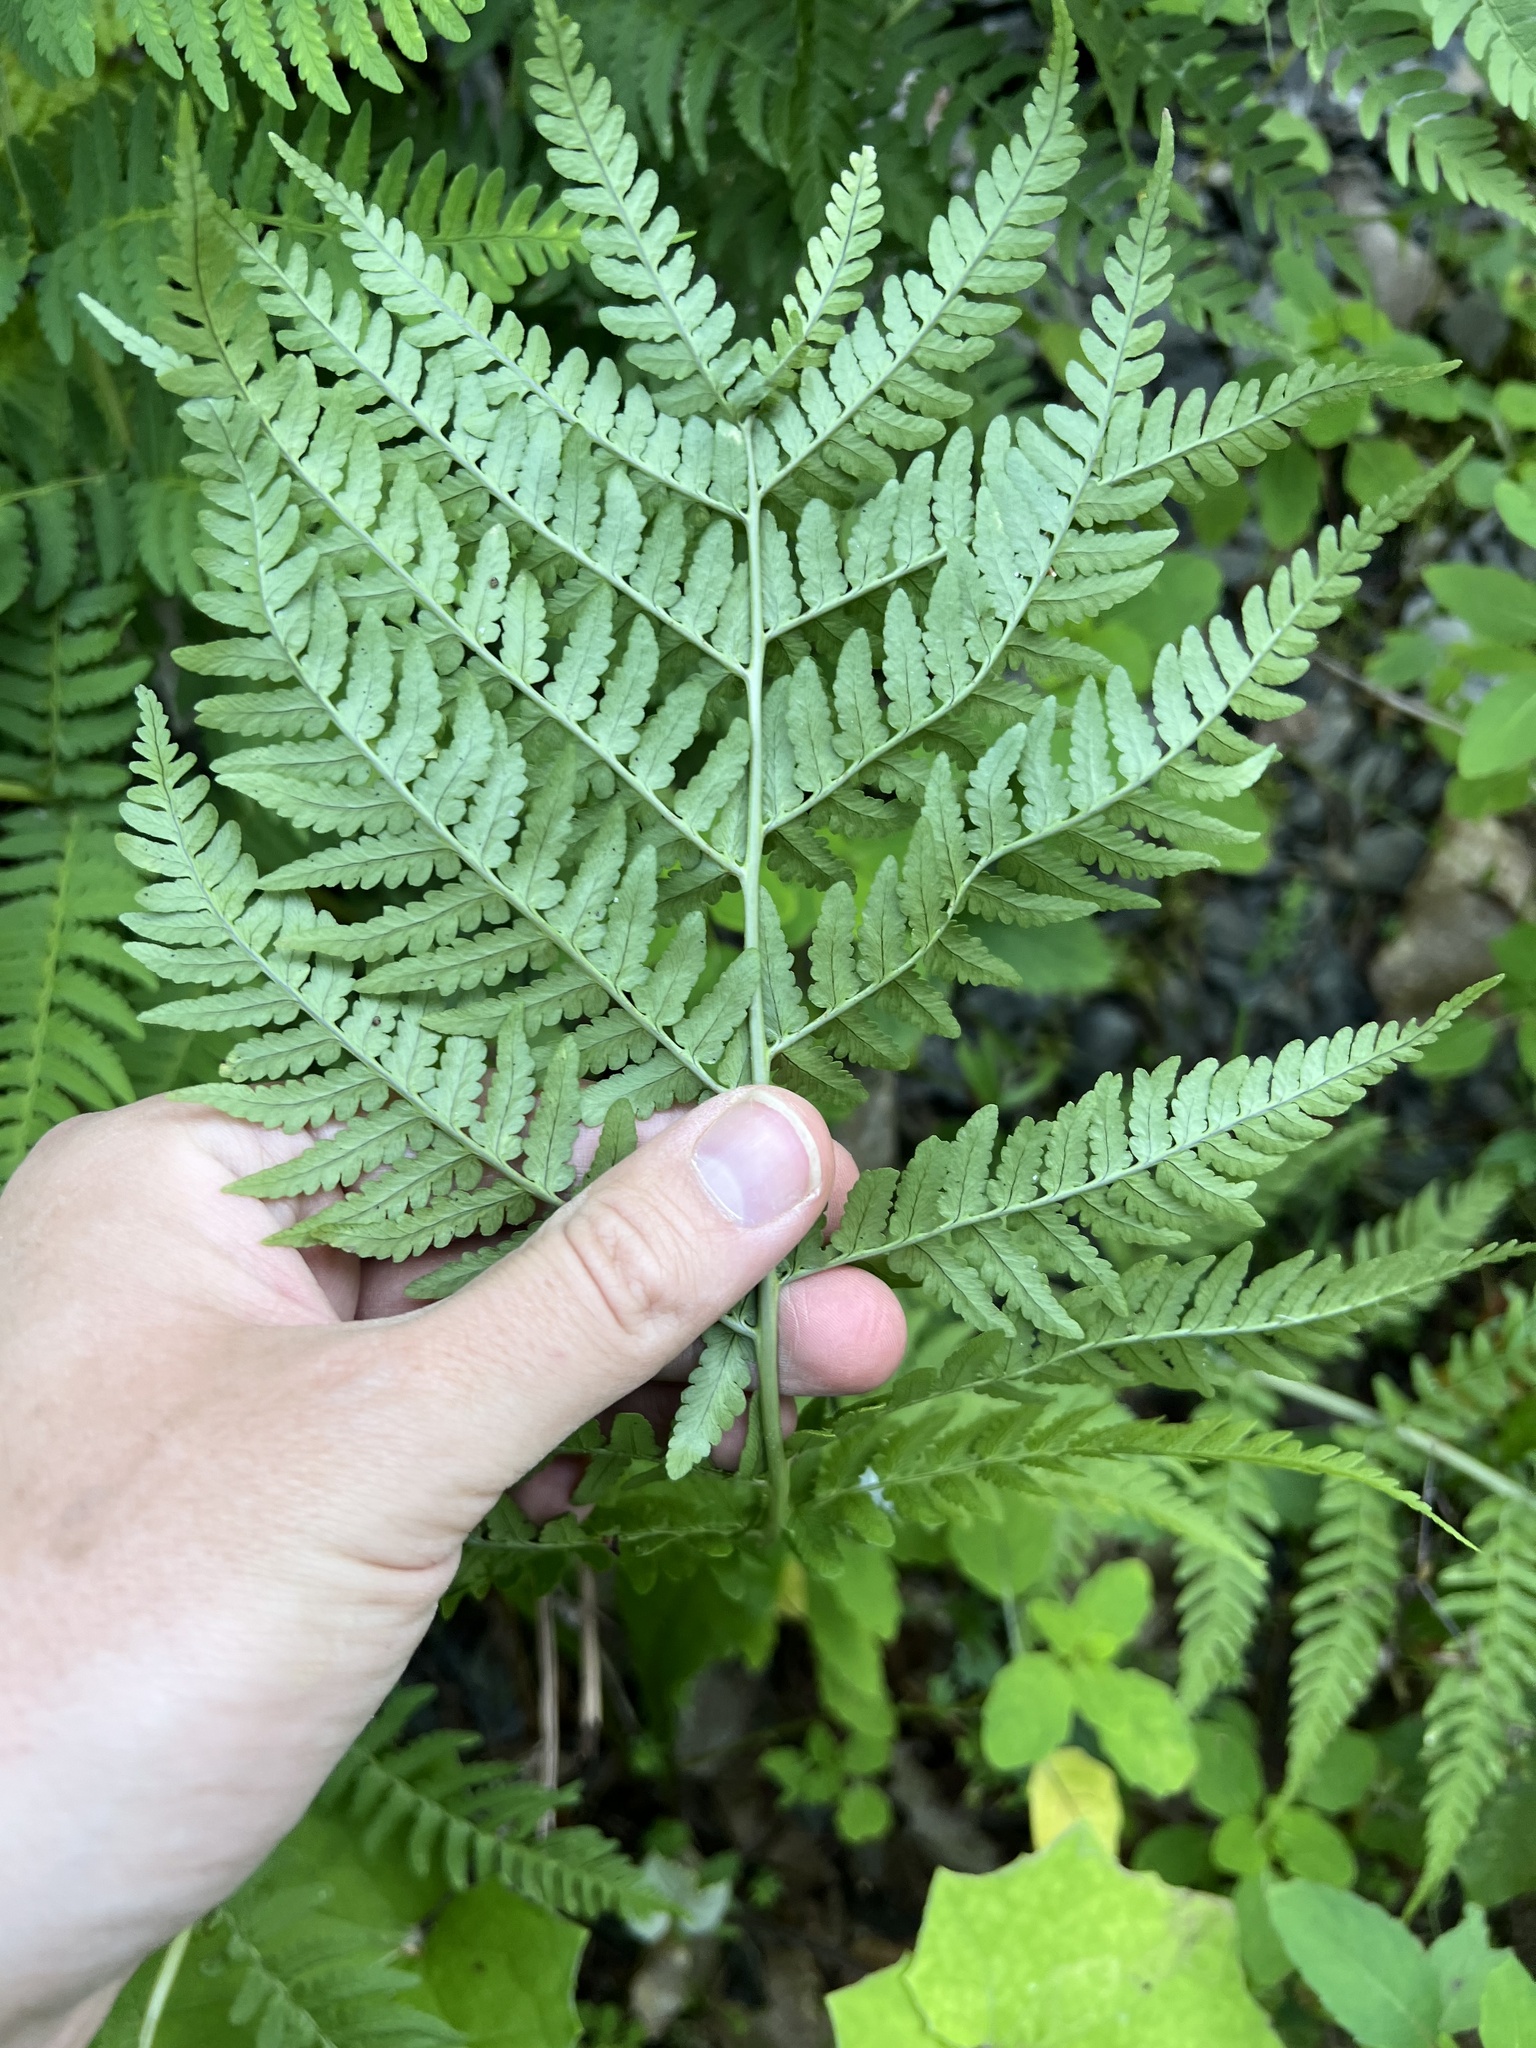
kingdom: Plantae
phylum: Tracheophyta
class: Polypodiopsida
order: Polypodiales
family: Dryopteridaceae
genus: Dryopteris
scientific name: Dryopteris marginalis
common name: Marginal wood fern
